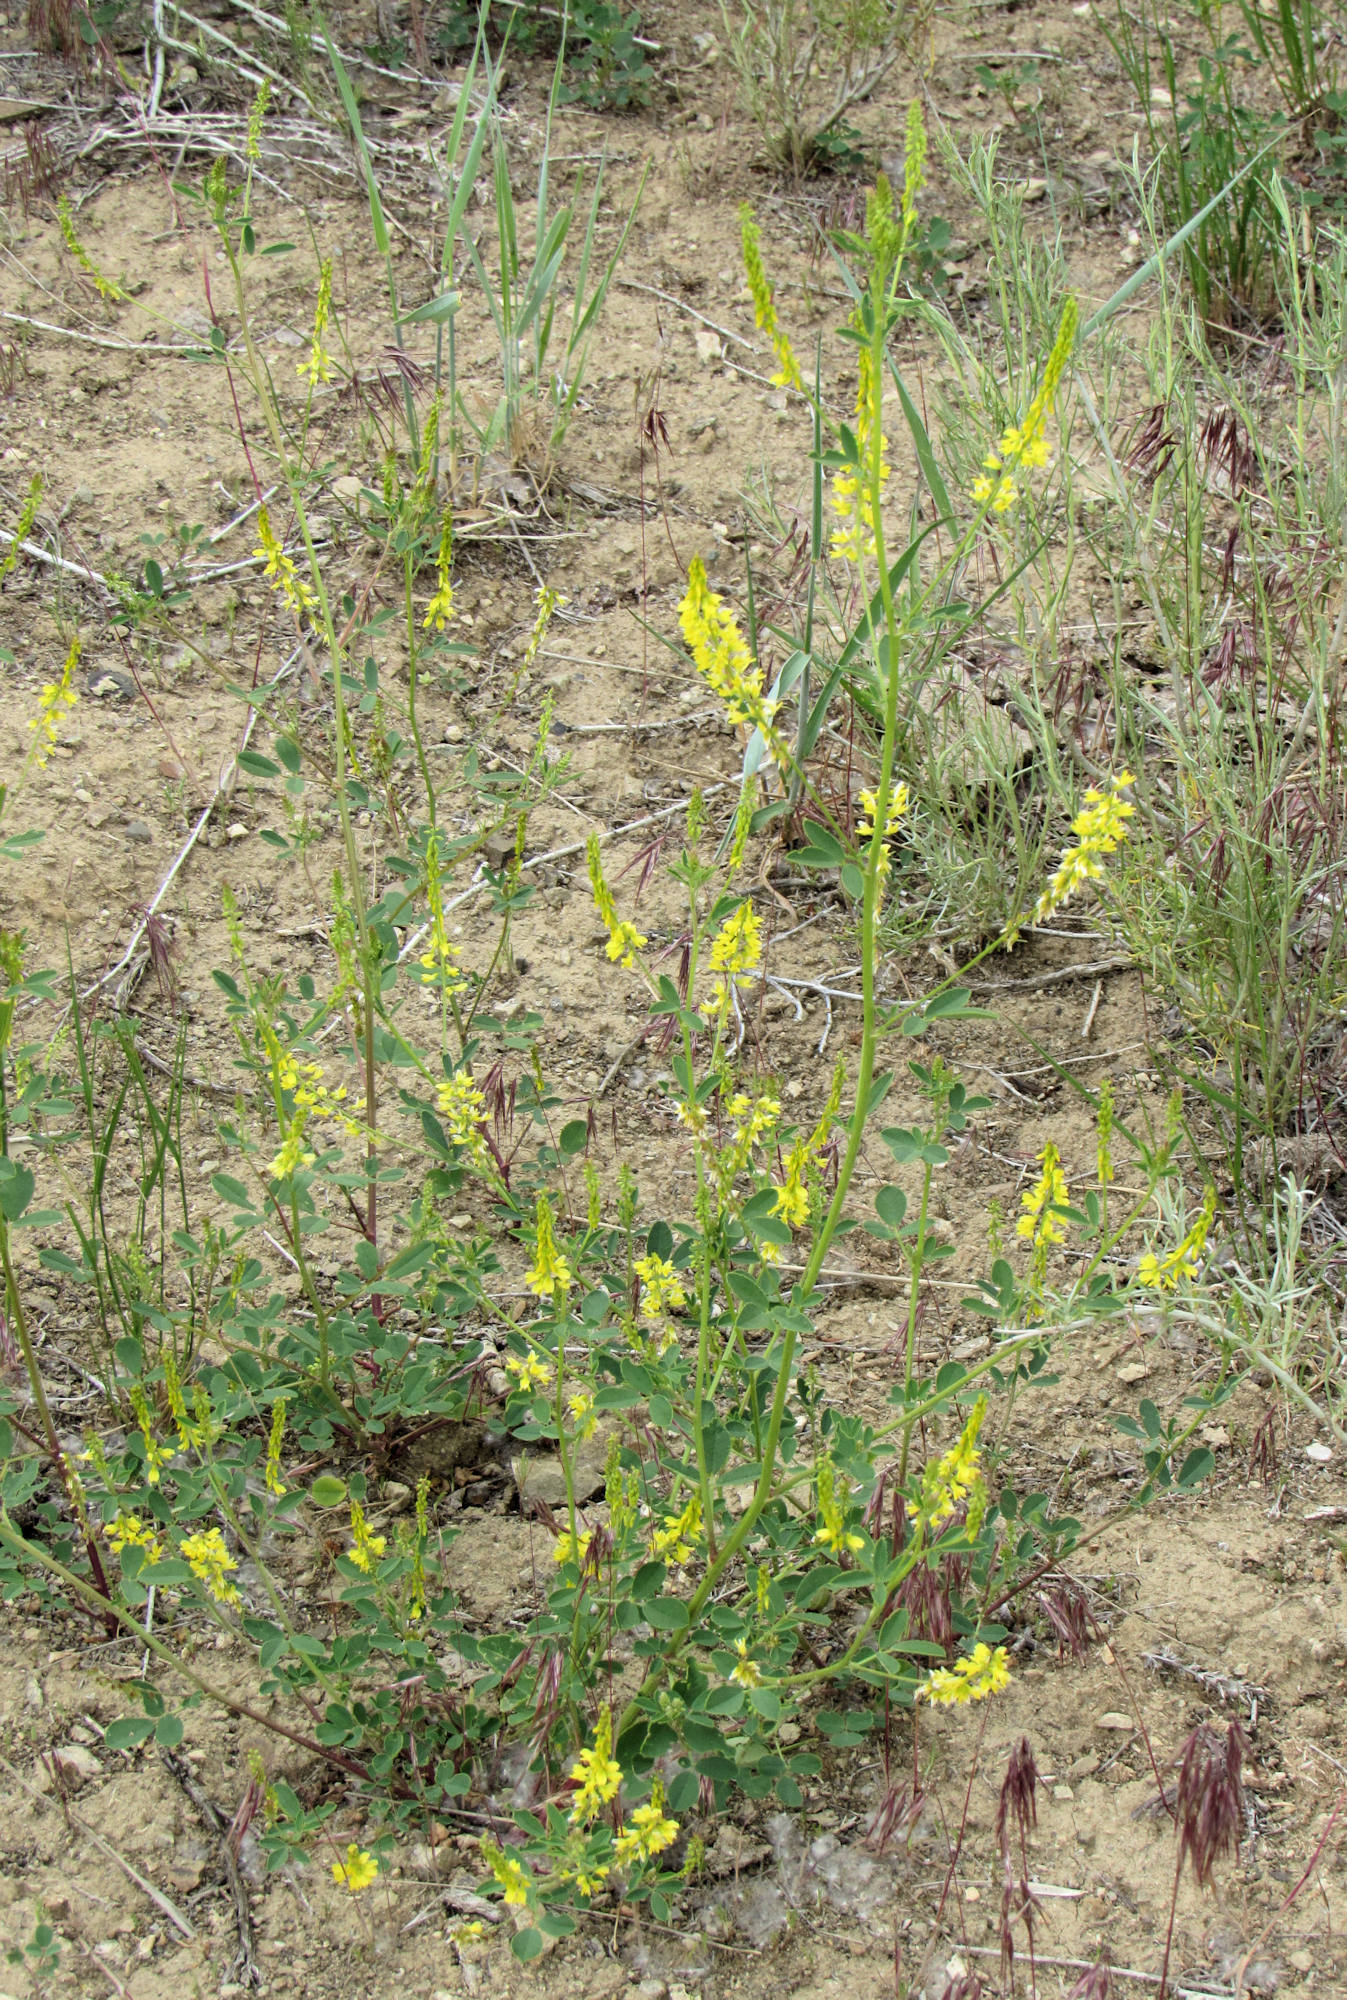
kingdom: Plantae
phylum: Tracheophyta
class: Magnoliopsida
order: Fabales
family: Fabaceae
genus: Melilotus
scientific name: Melilotus officinalis
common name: Sweetclover
